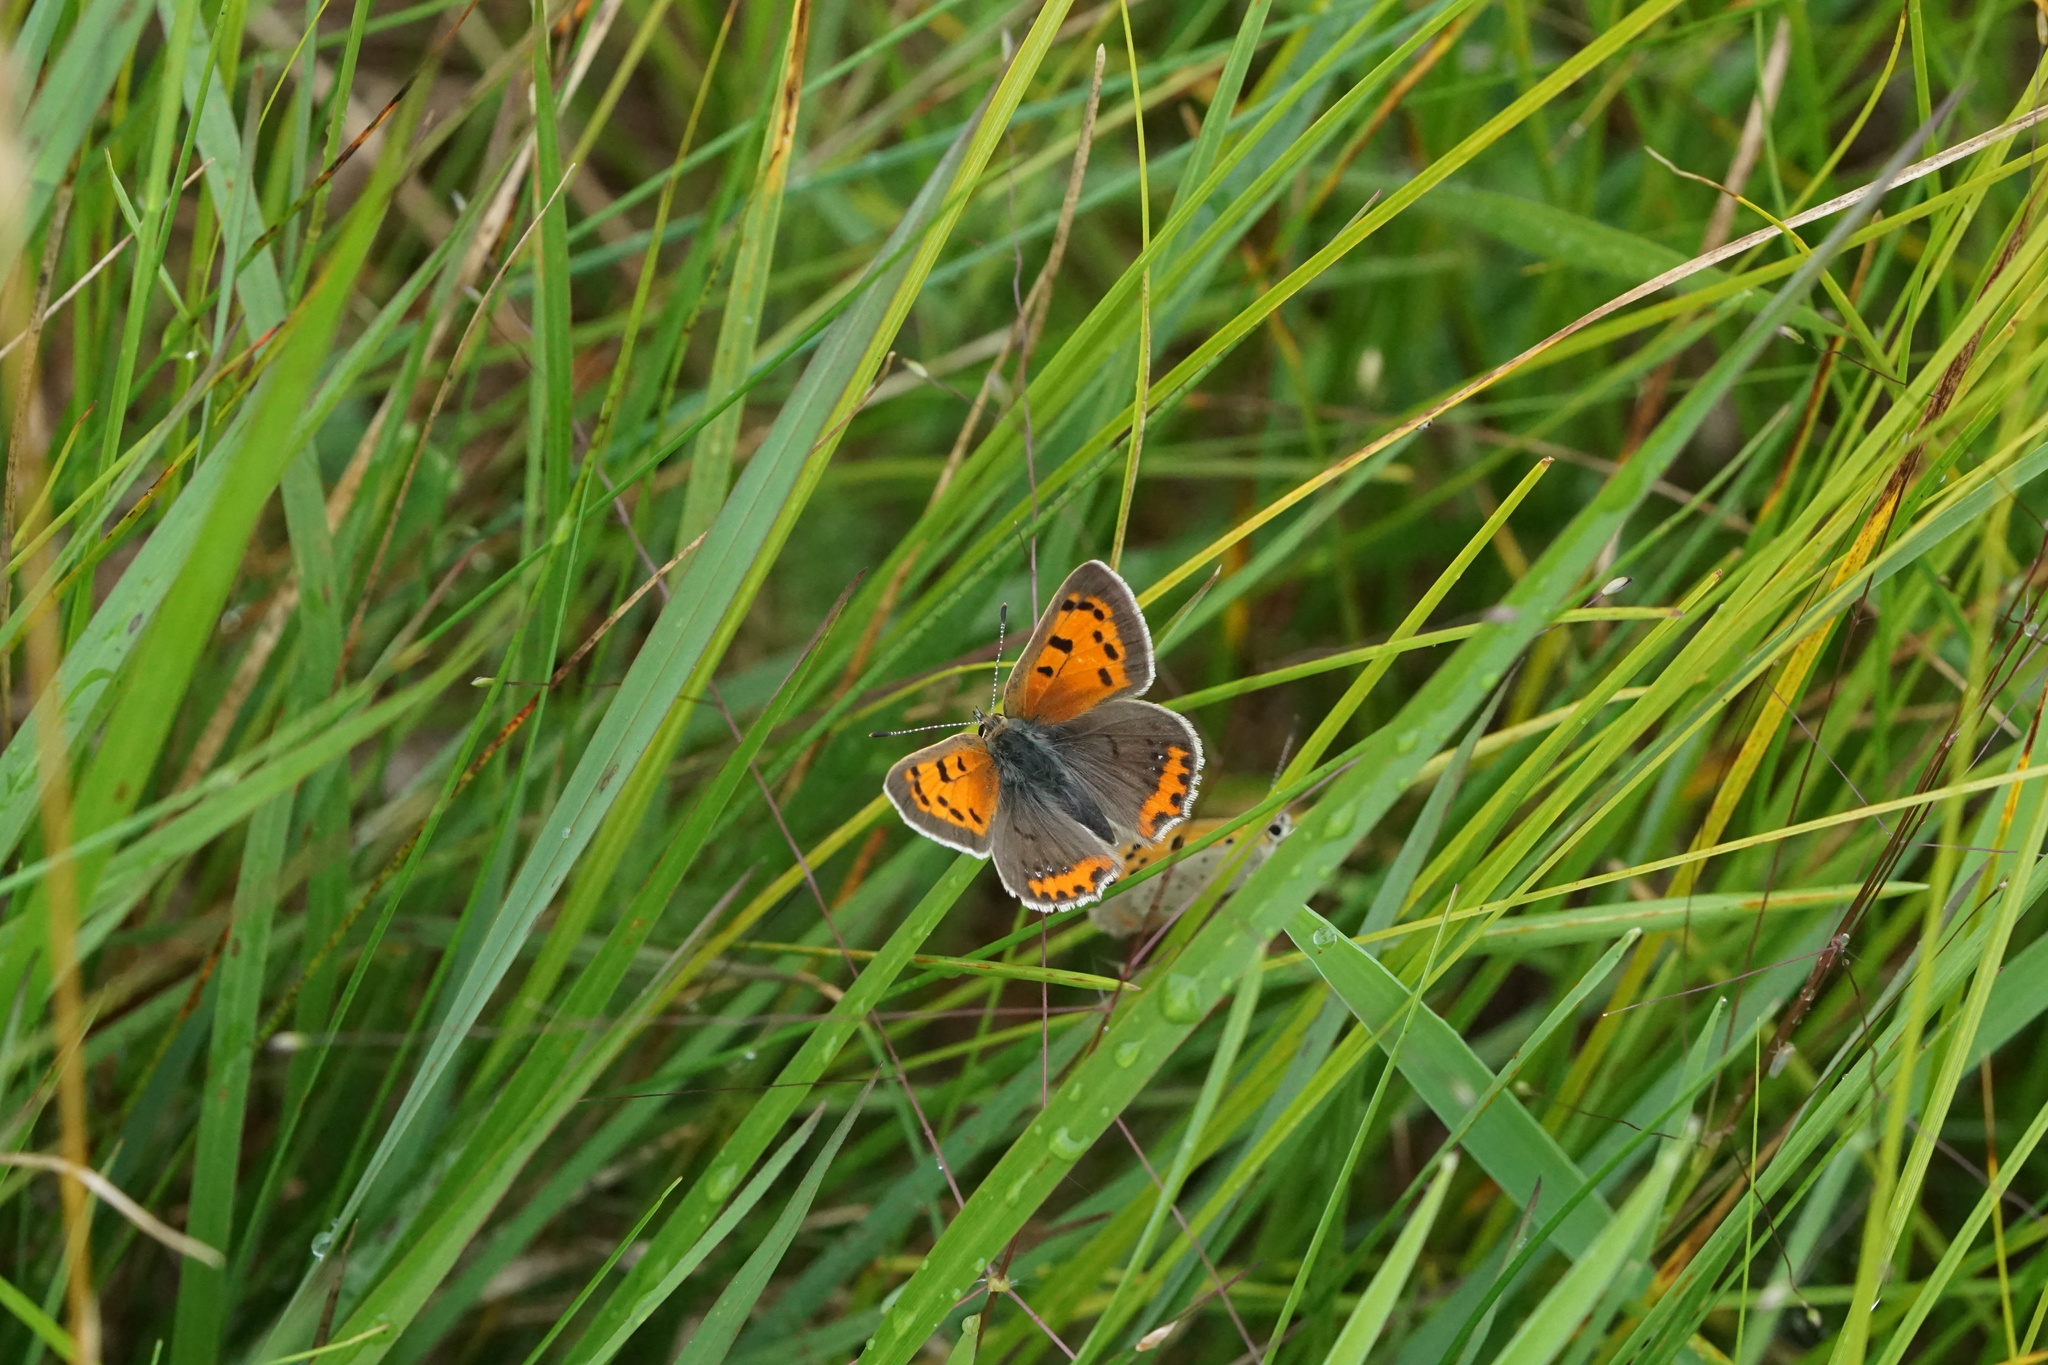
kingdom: Animalia
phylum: Arthropoda
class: Insecta
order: Lepidoptera
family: Lycaenidae
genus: Lycaena
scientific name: Lycaena hypophlaeas
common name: American copper
